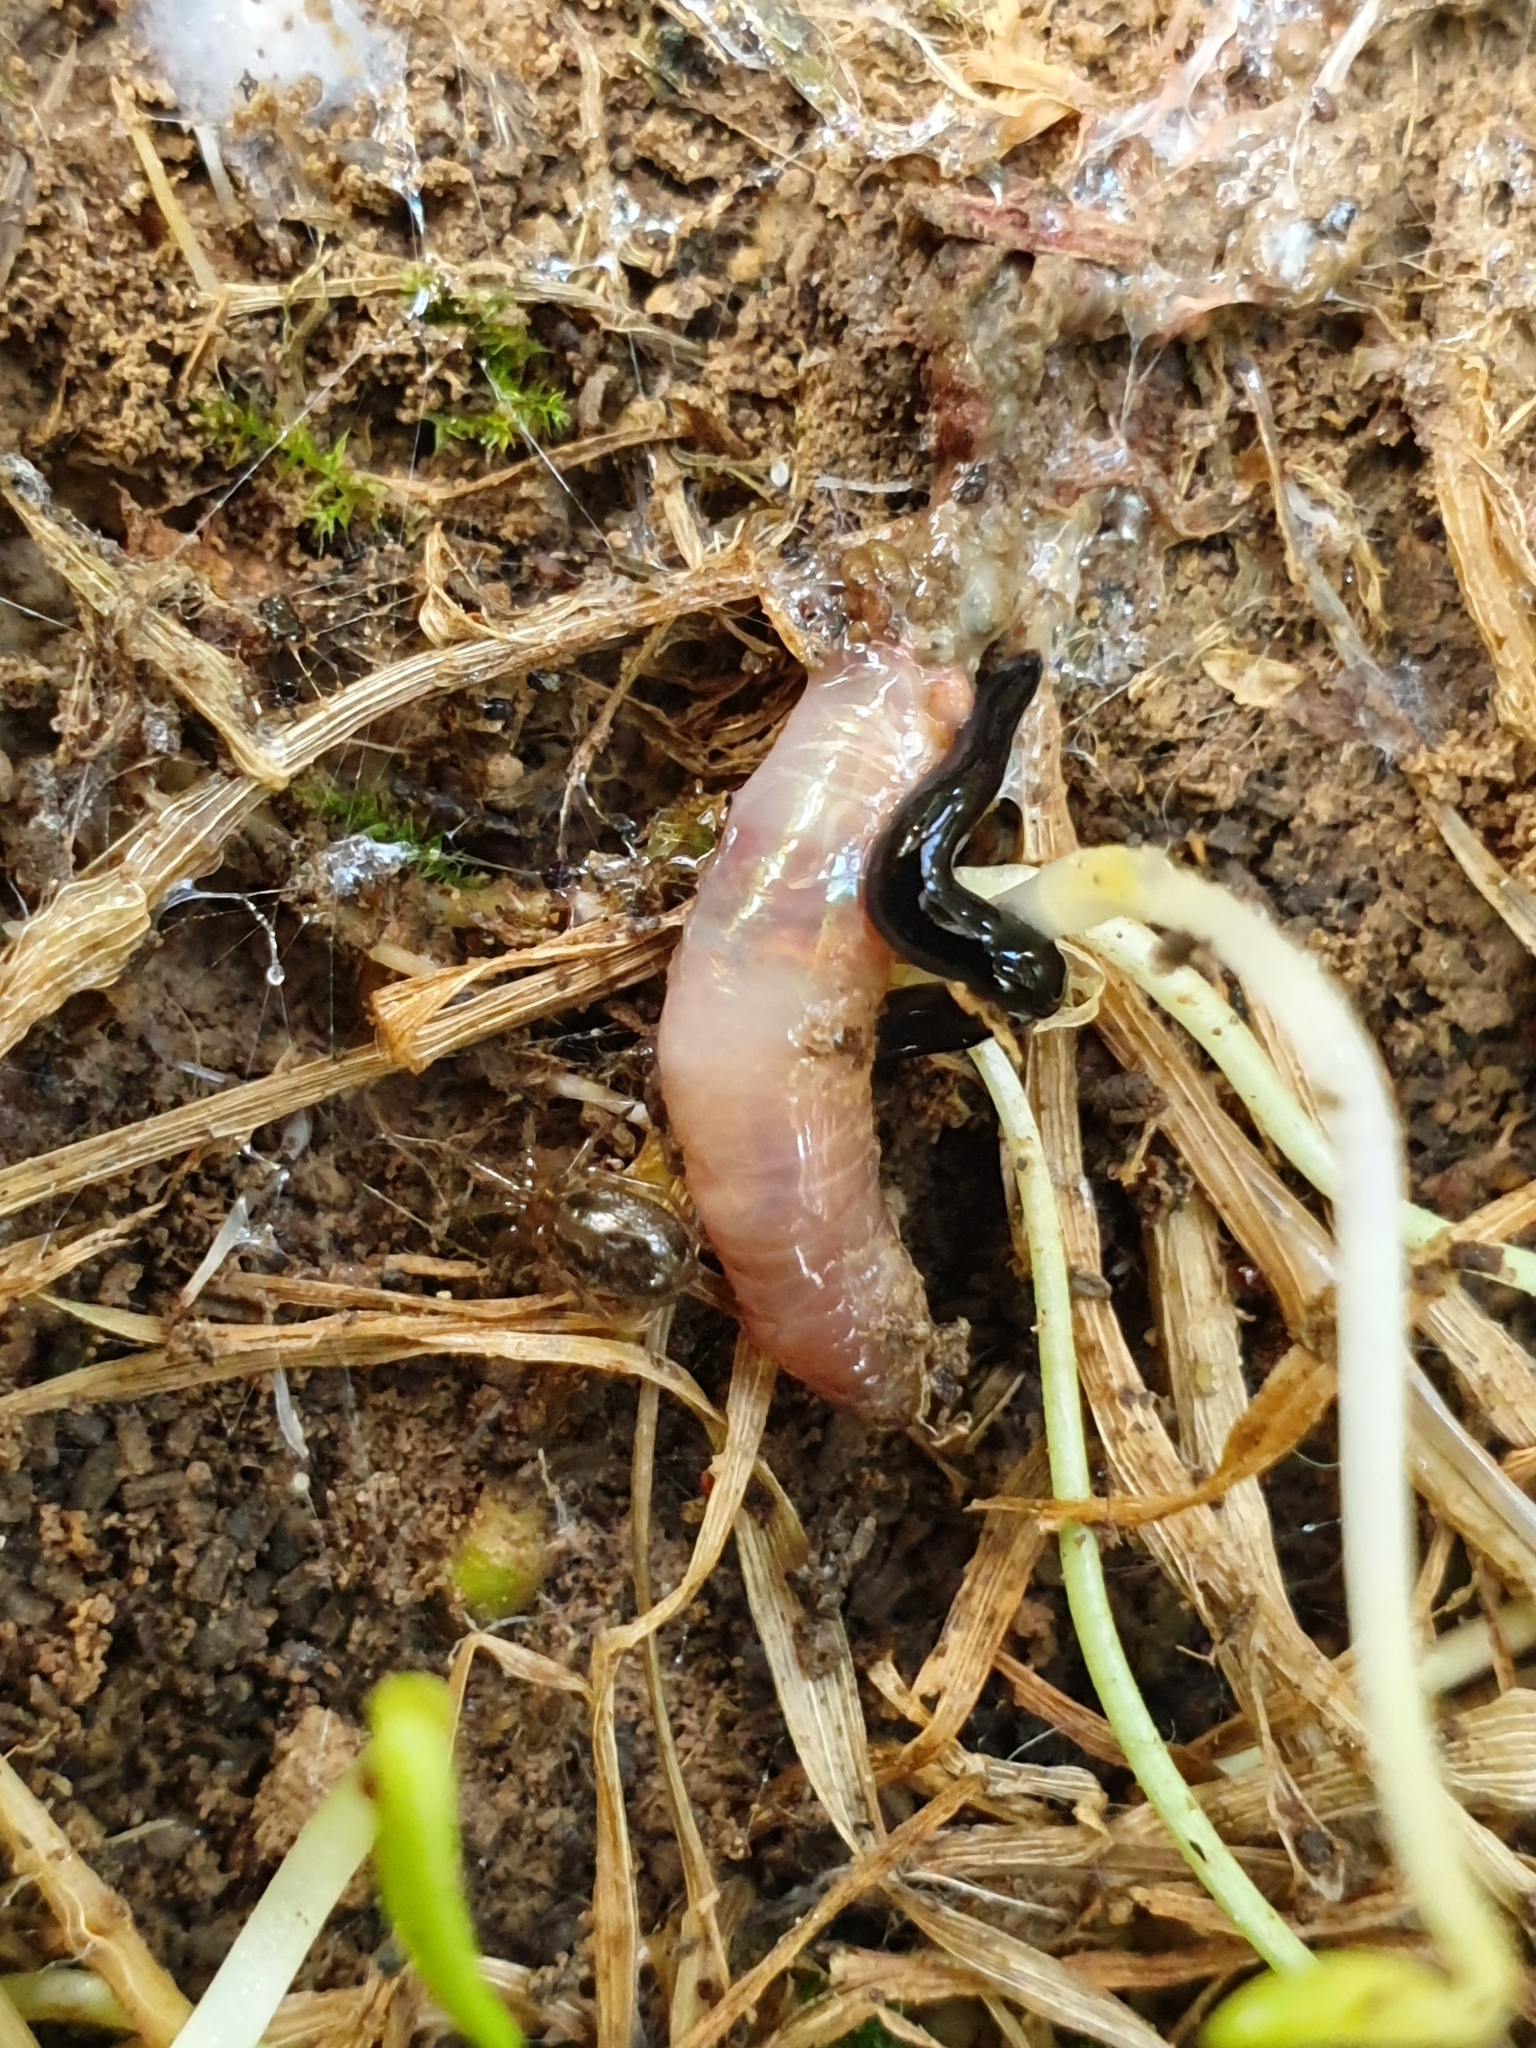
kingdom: Animalia
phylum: Platyhelminthes
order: Tricladida
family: Geoplanidae
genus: Kontikia
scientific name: Kontikia atrata
